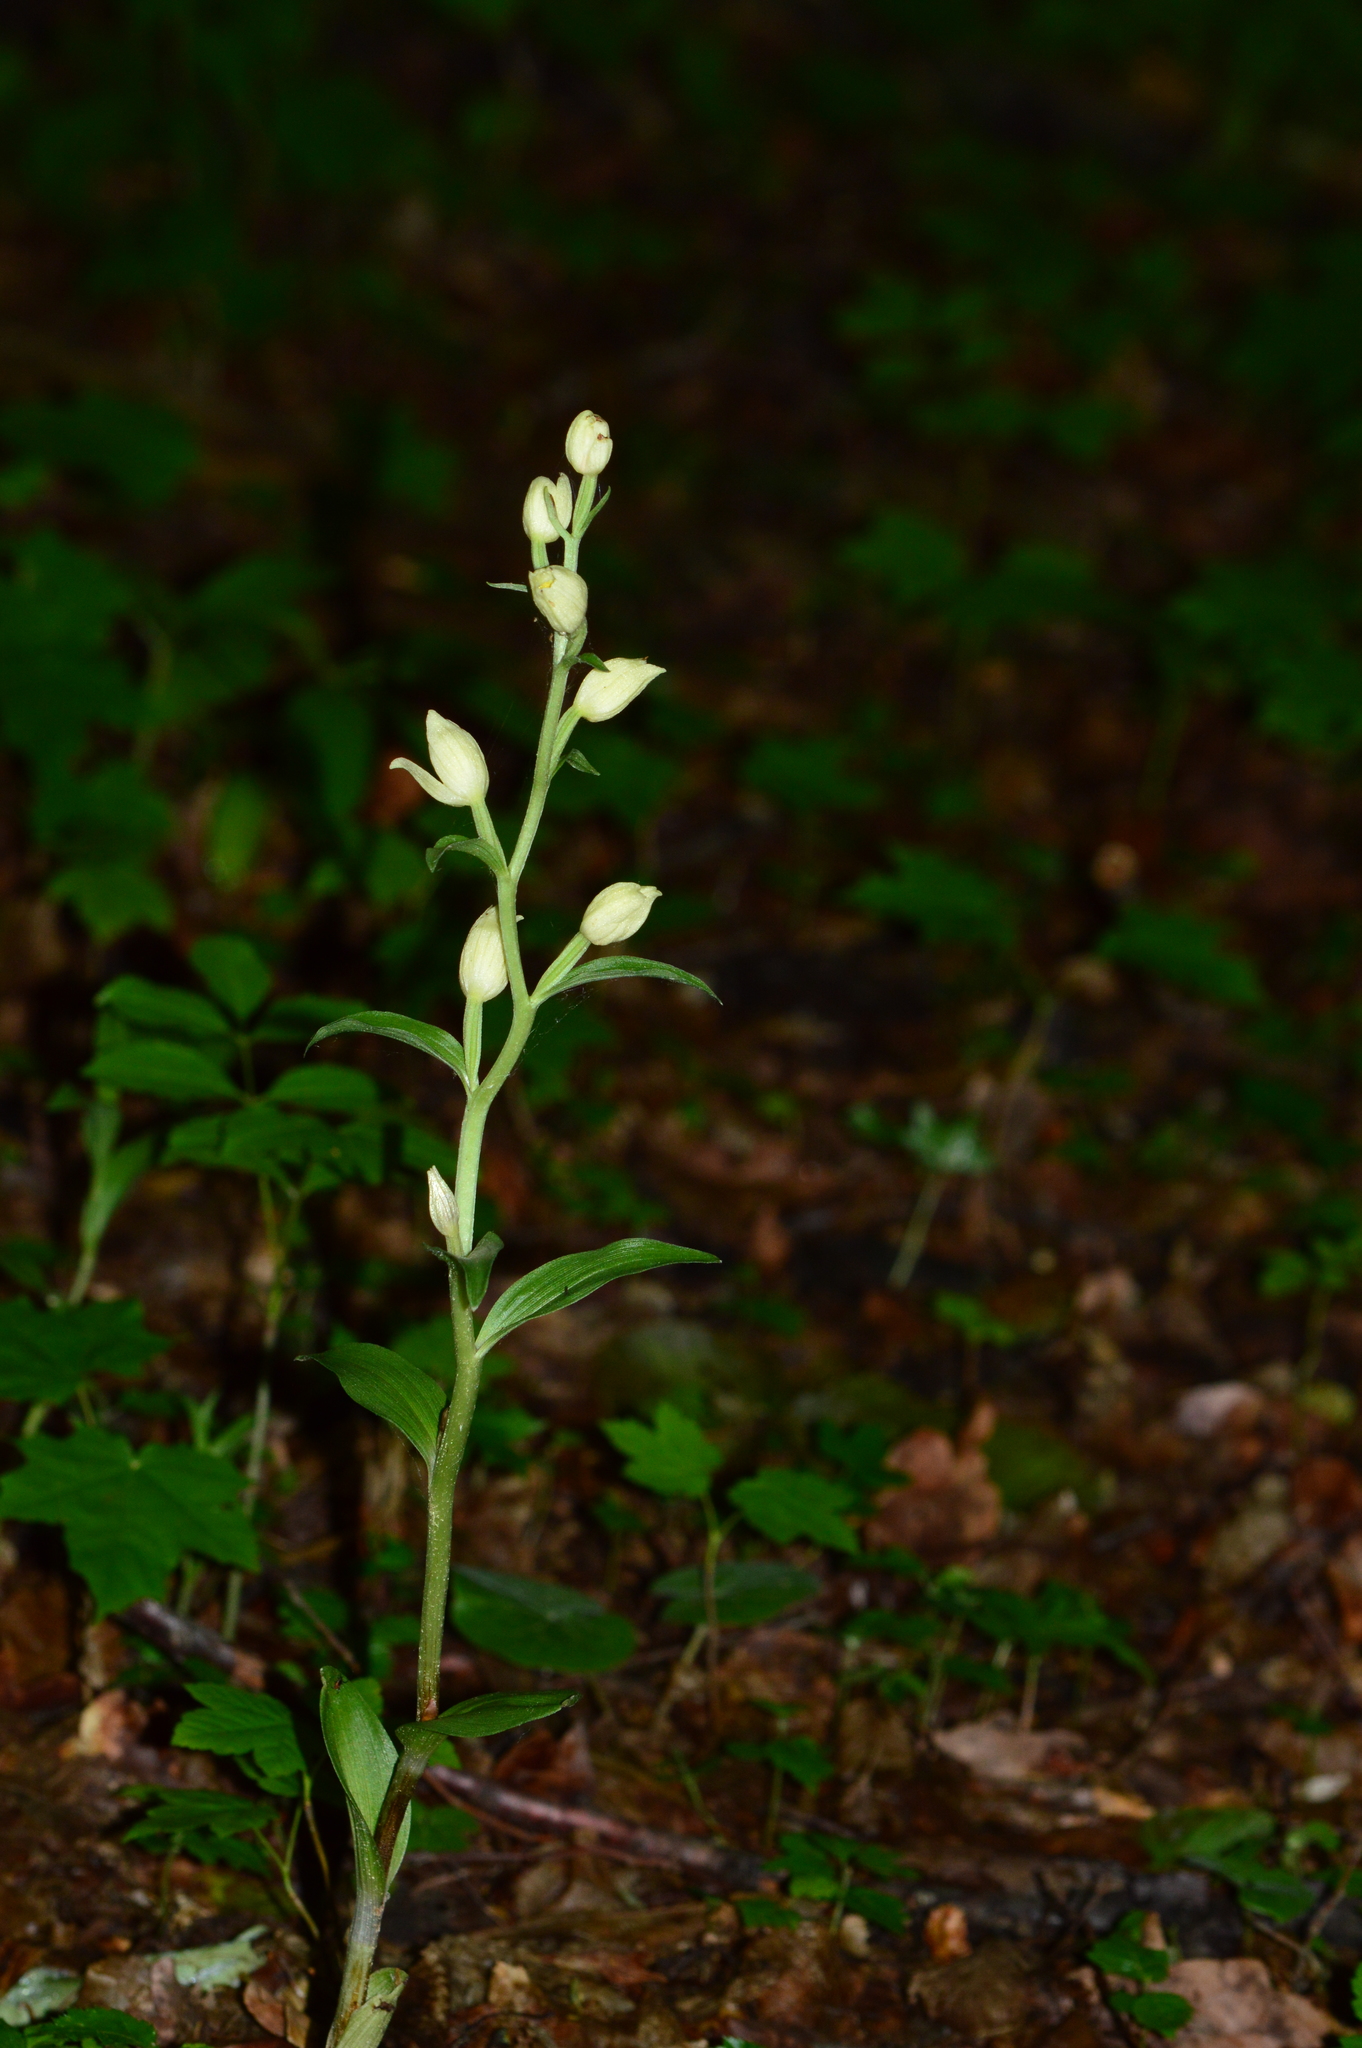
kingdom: Plantae
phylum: Tracheophyta
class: Liliopsida
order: Asparagales
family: Orchidaceae
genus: Cephalanthera
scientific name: Cephalanthera damasonium
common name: White helleborine
